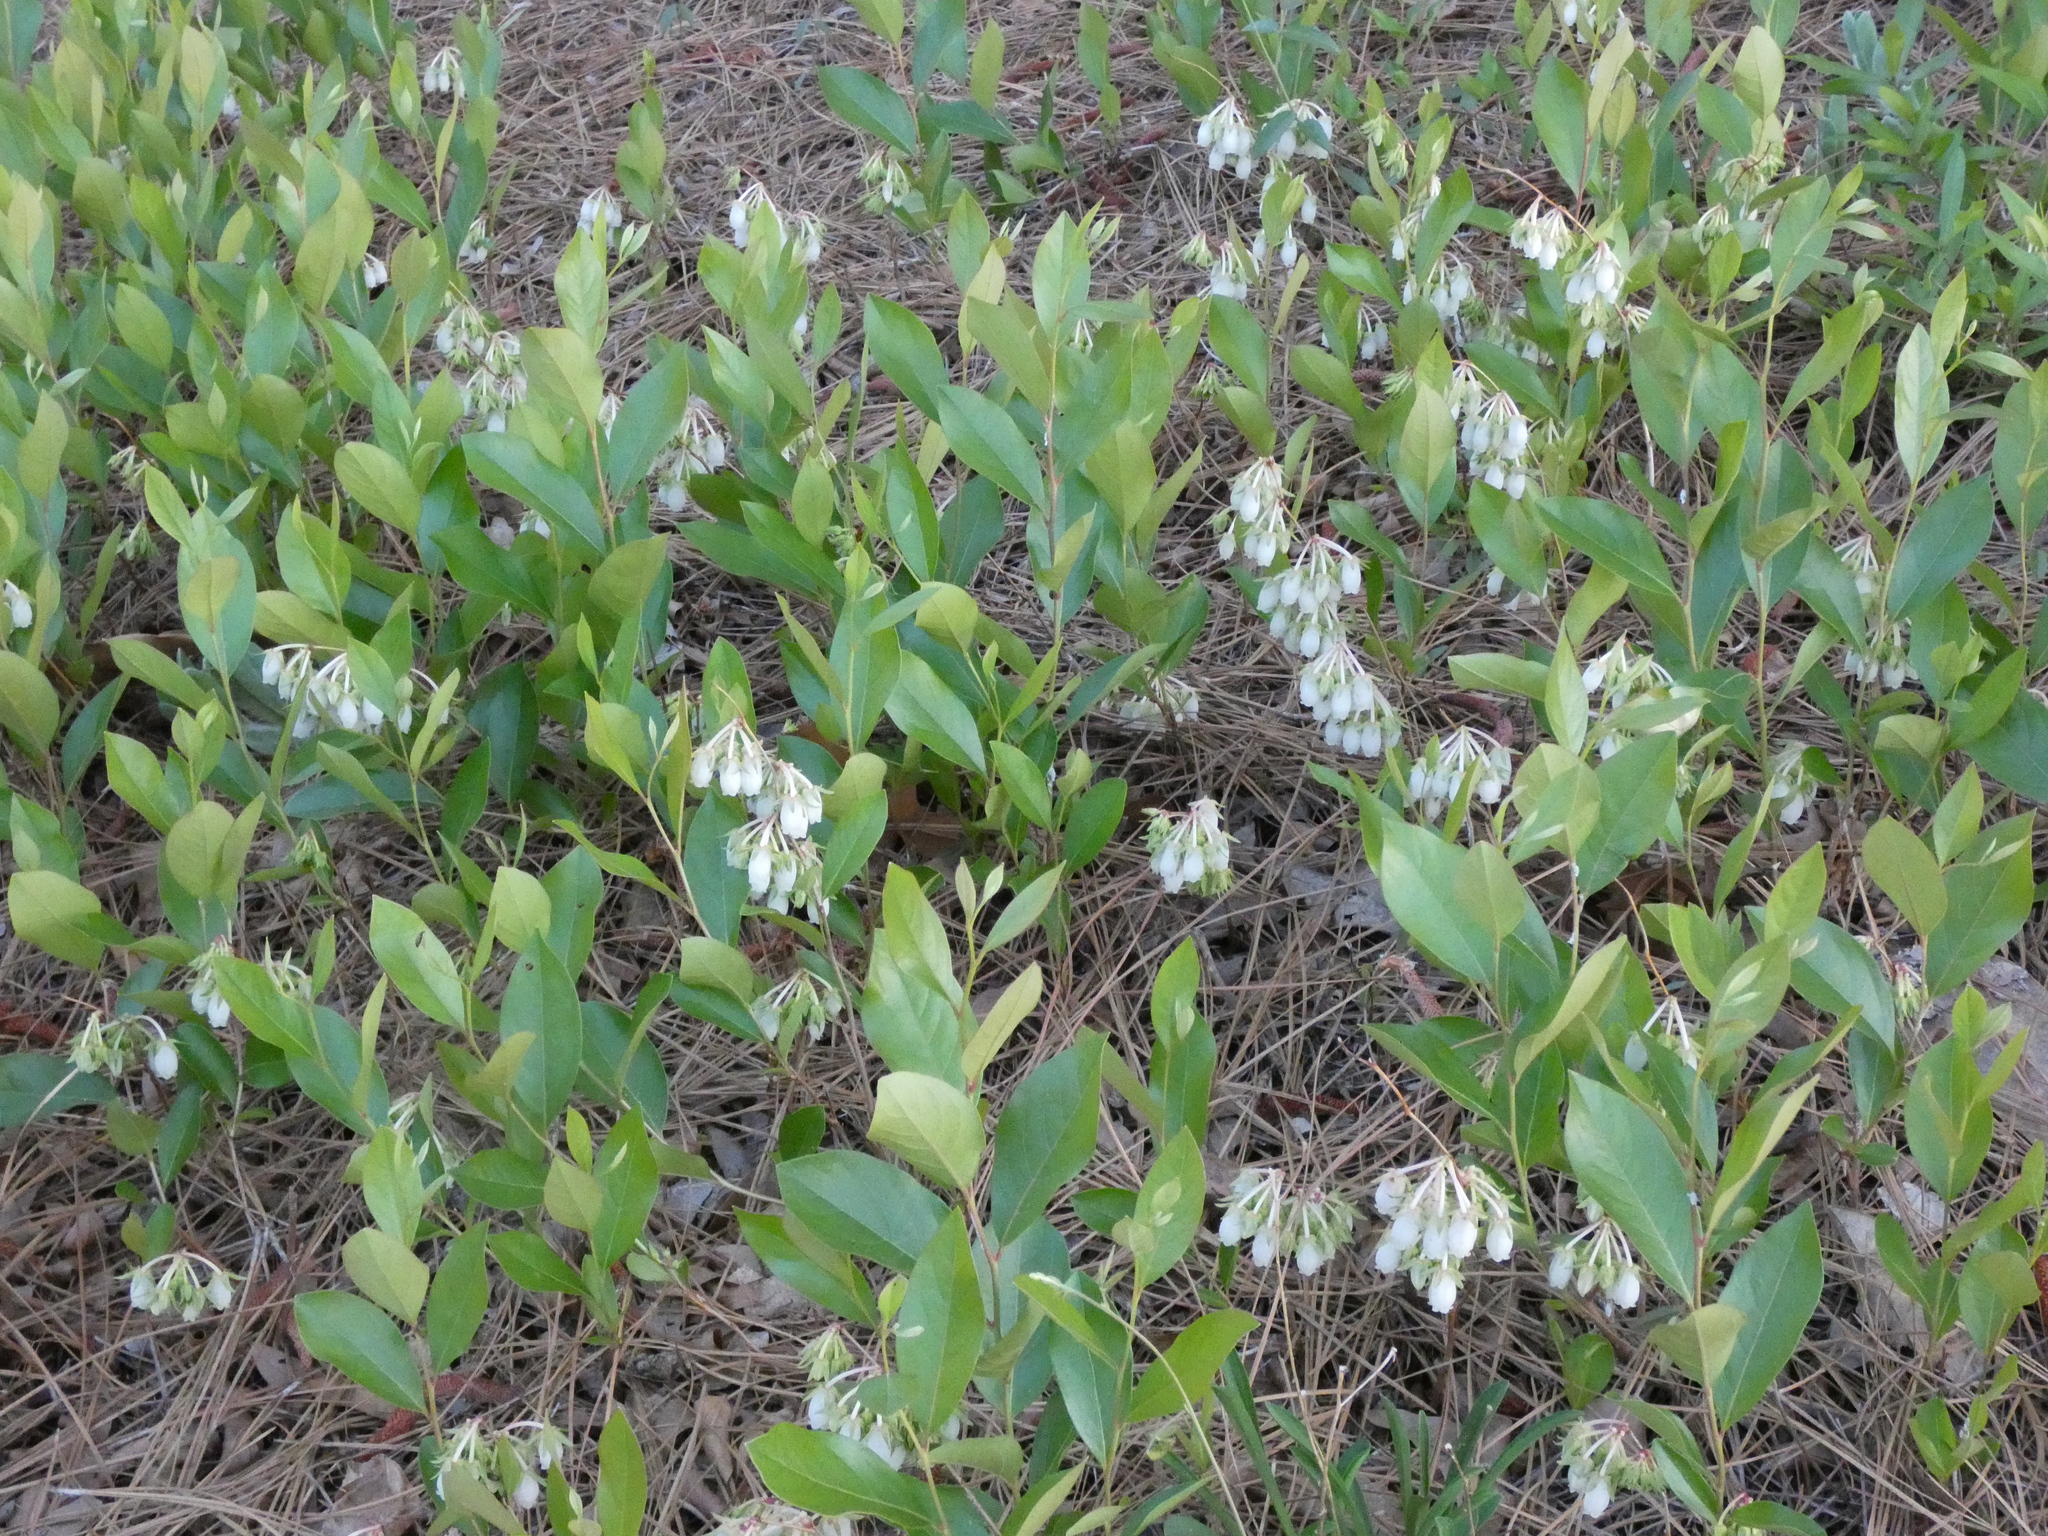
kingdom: Plantae
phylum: Tracheophyta
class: Magnoliopsida
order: Ericales
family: Ericaceae
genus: Lyonia
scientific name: Lyonia mariana
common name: Staggerbush
